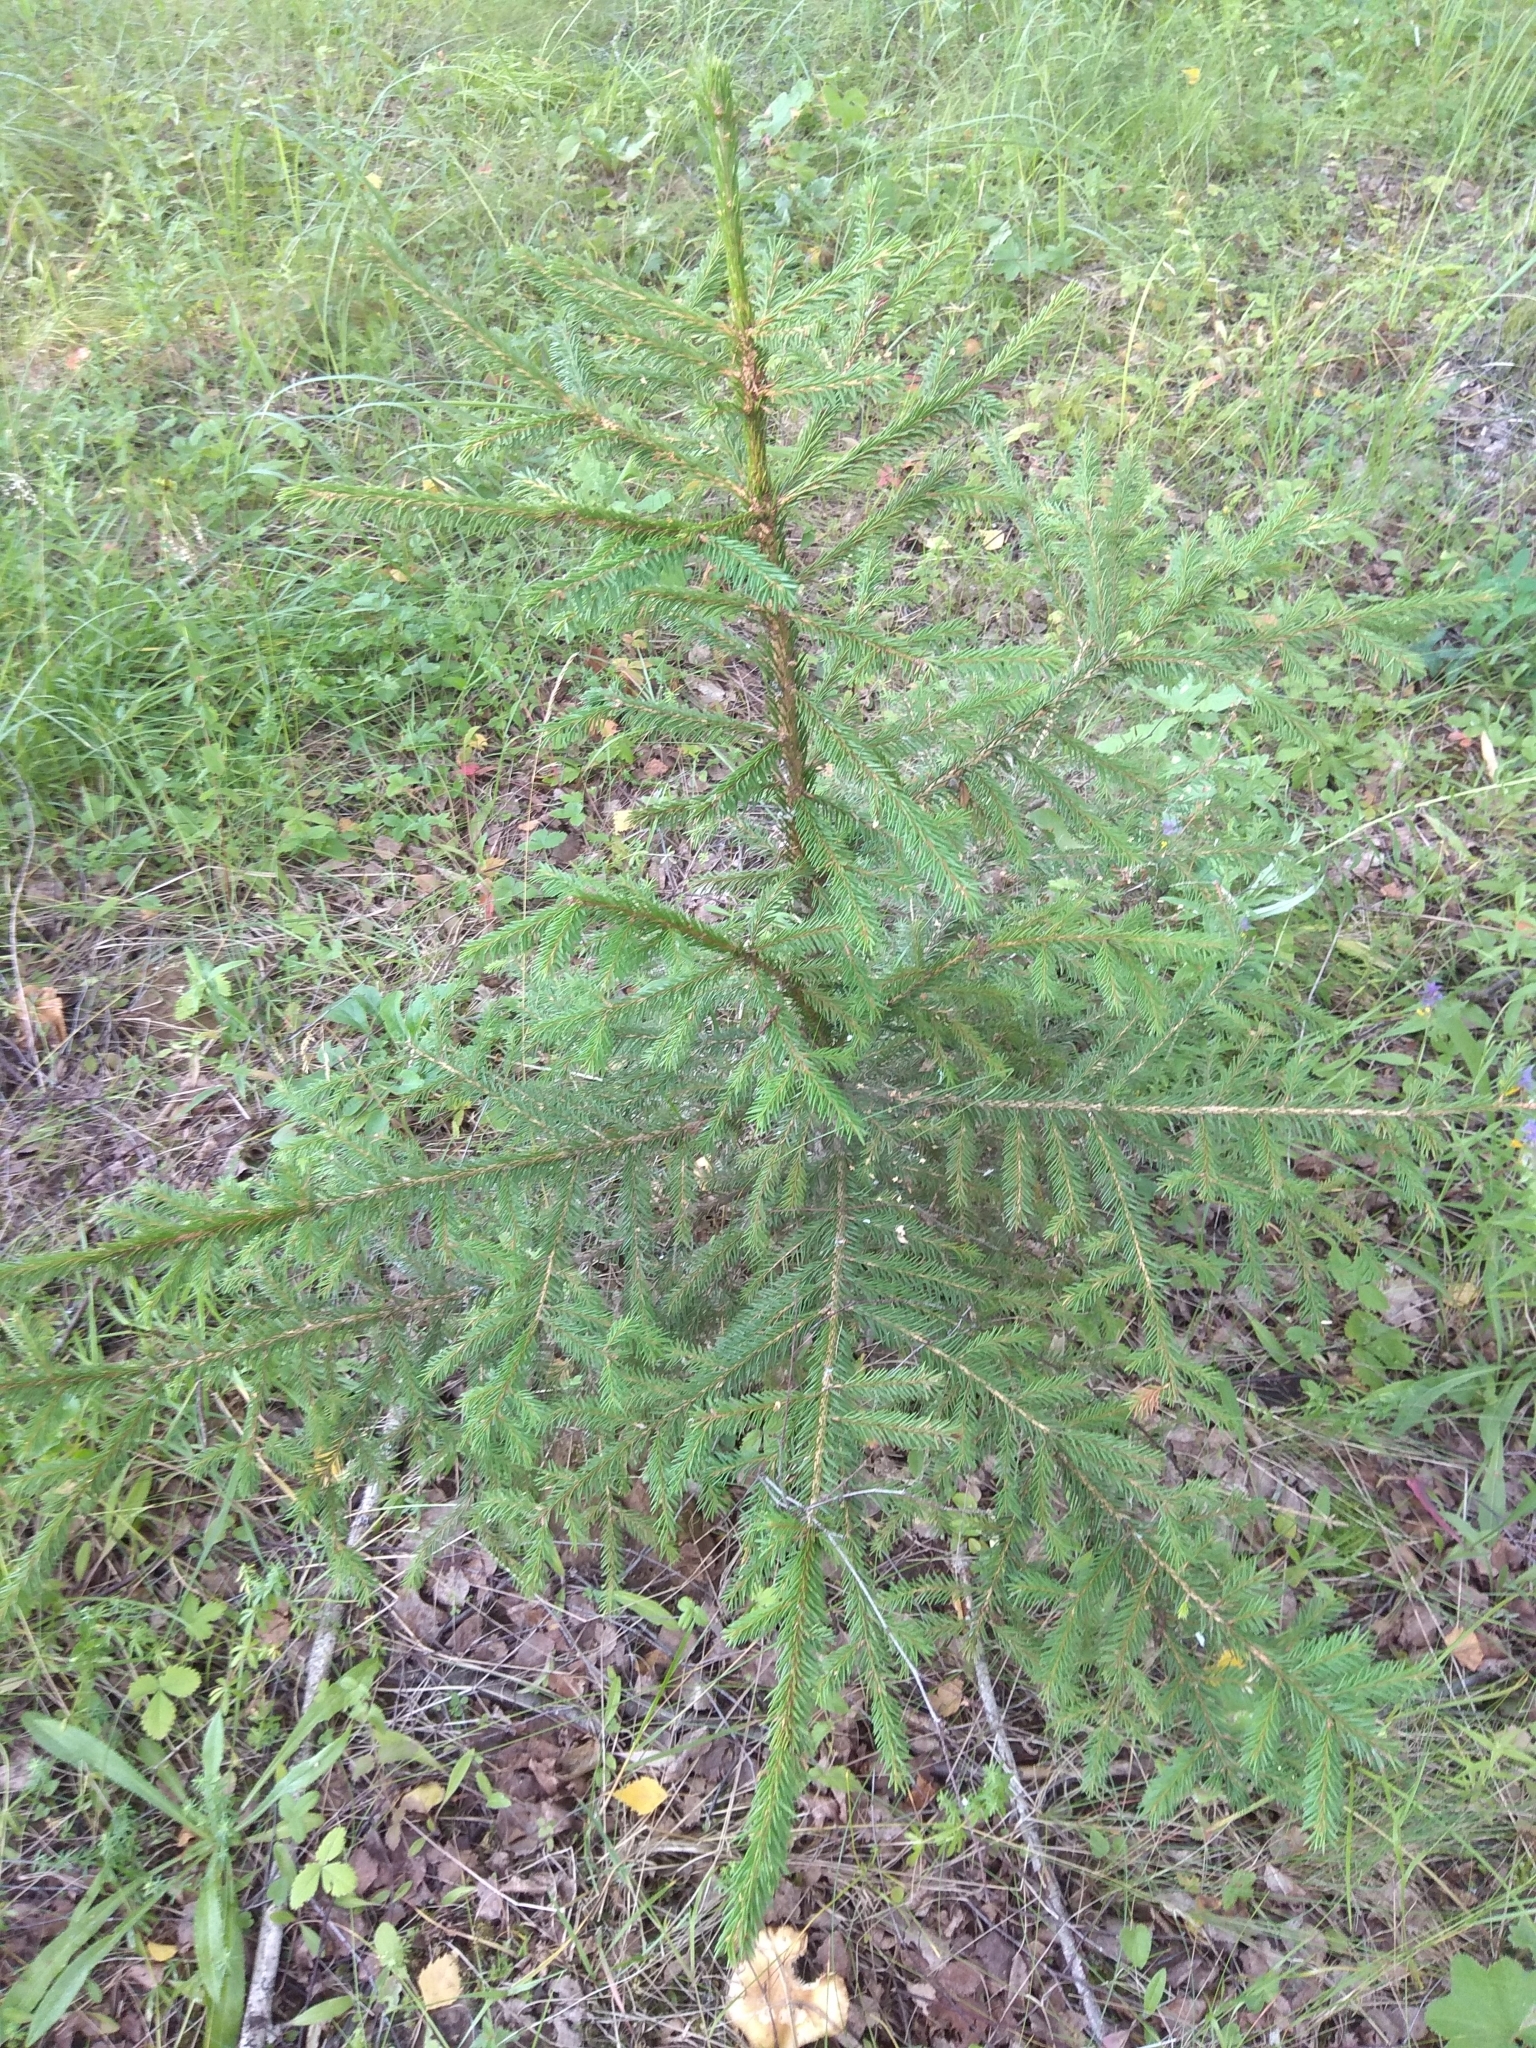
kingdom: Plantae
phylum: Tracheophyta
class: Pinopsida
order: Pinales
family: Pinaceae
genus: Picea
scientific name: Picea abies
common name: Norway spruce
